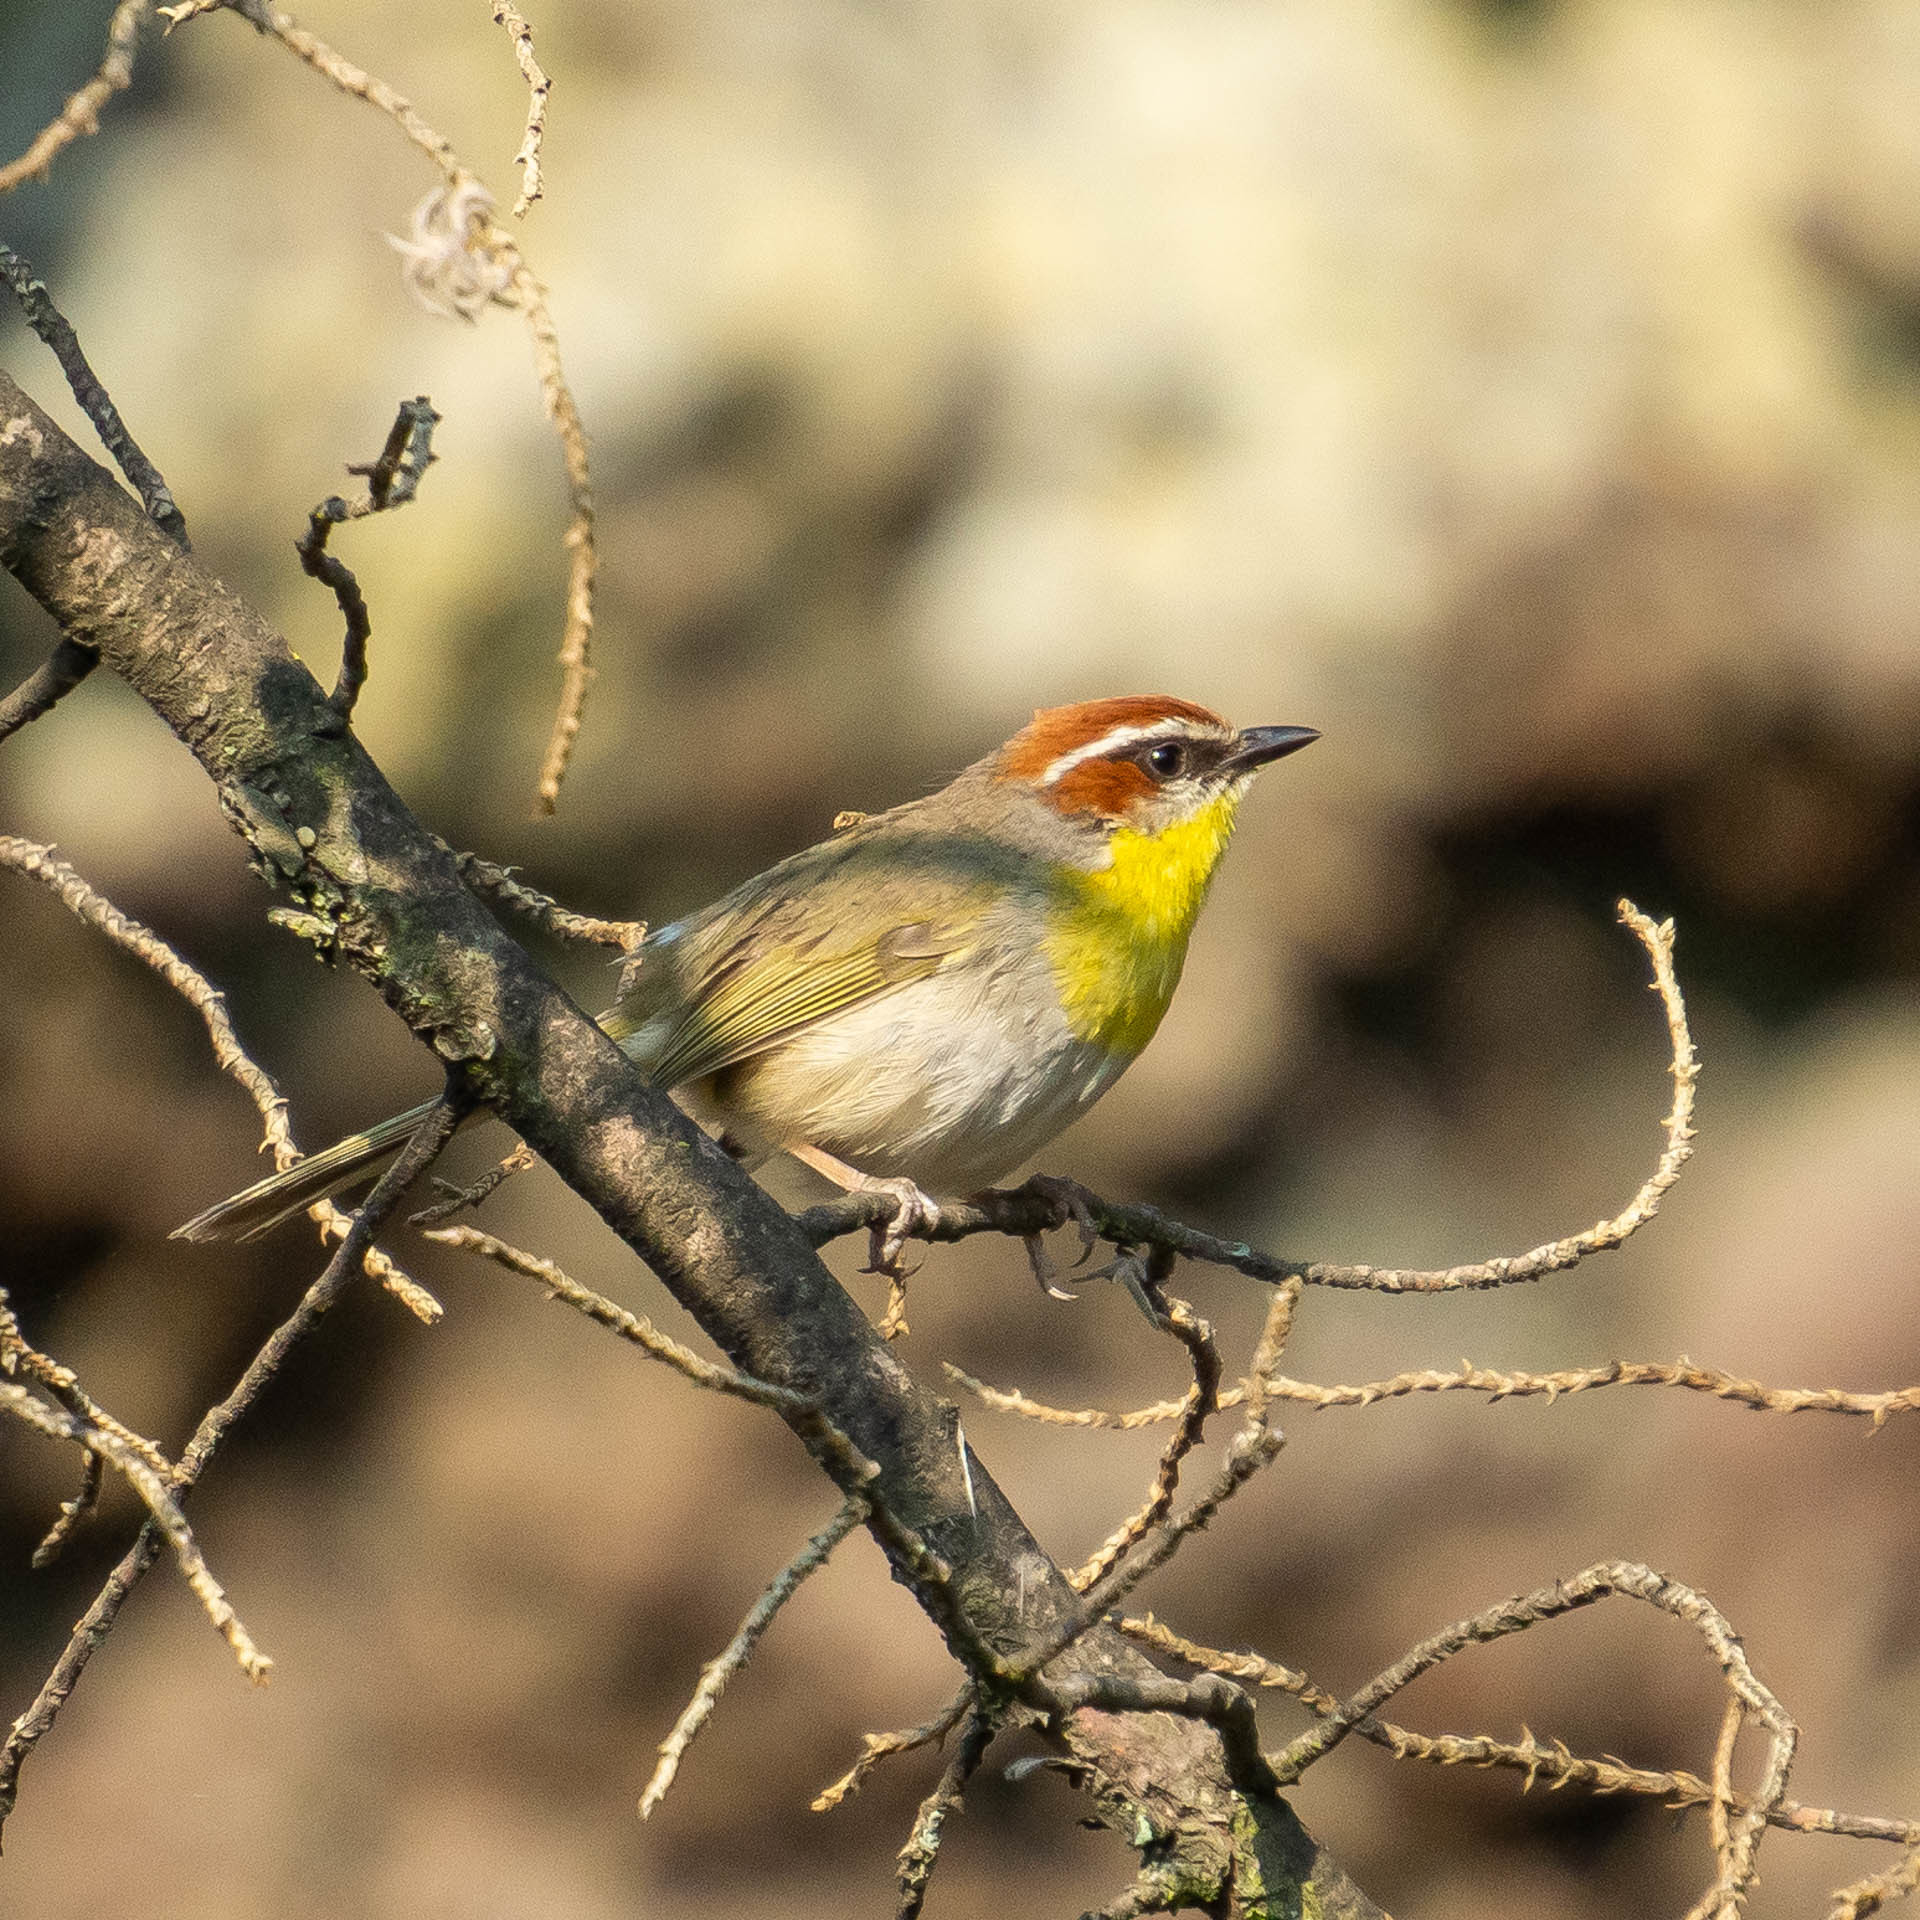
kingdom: Animalia
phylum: Chordata
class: Aves
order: Passeriformes
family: Parulidae
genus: Basileuterus
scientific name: Basileuterus rufifrons
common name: Rufous-capped warbler
